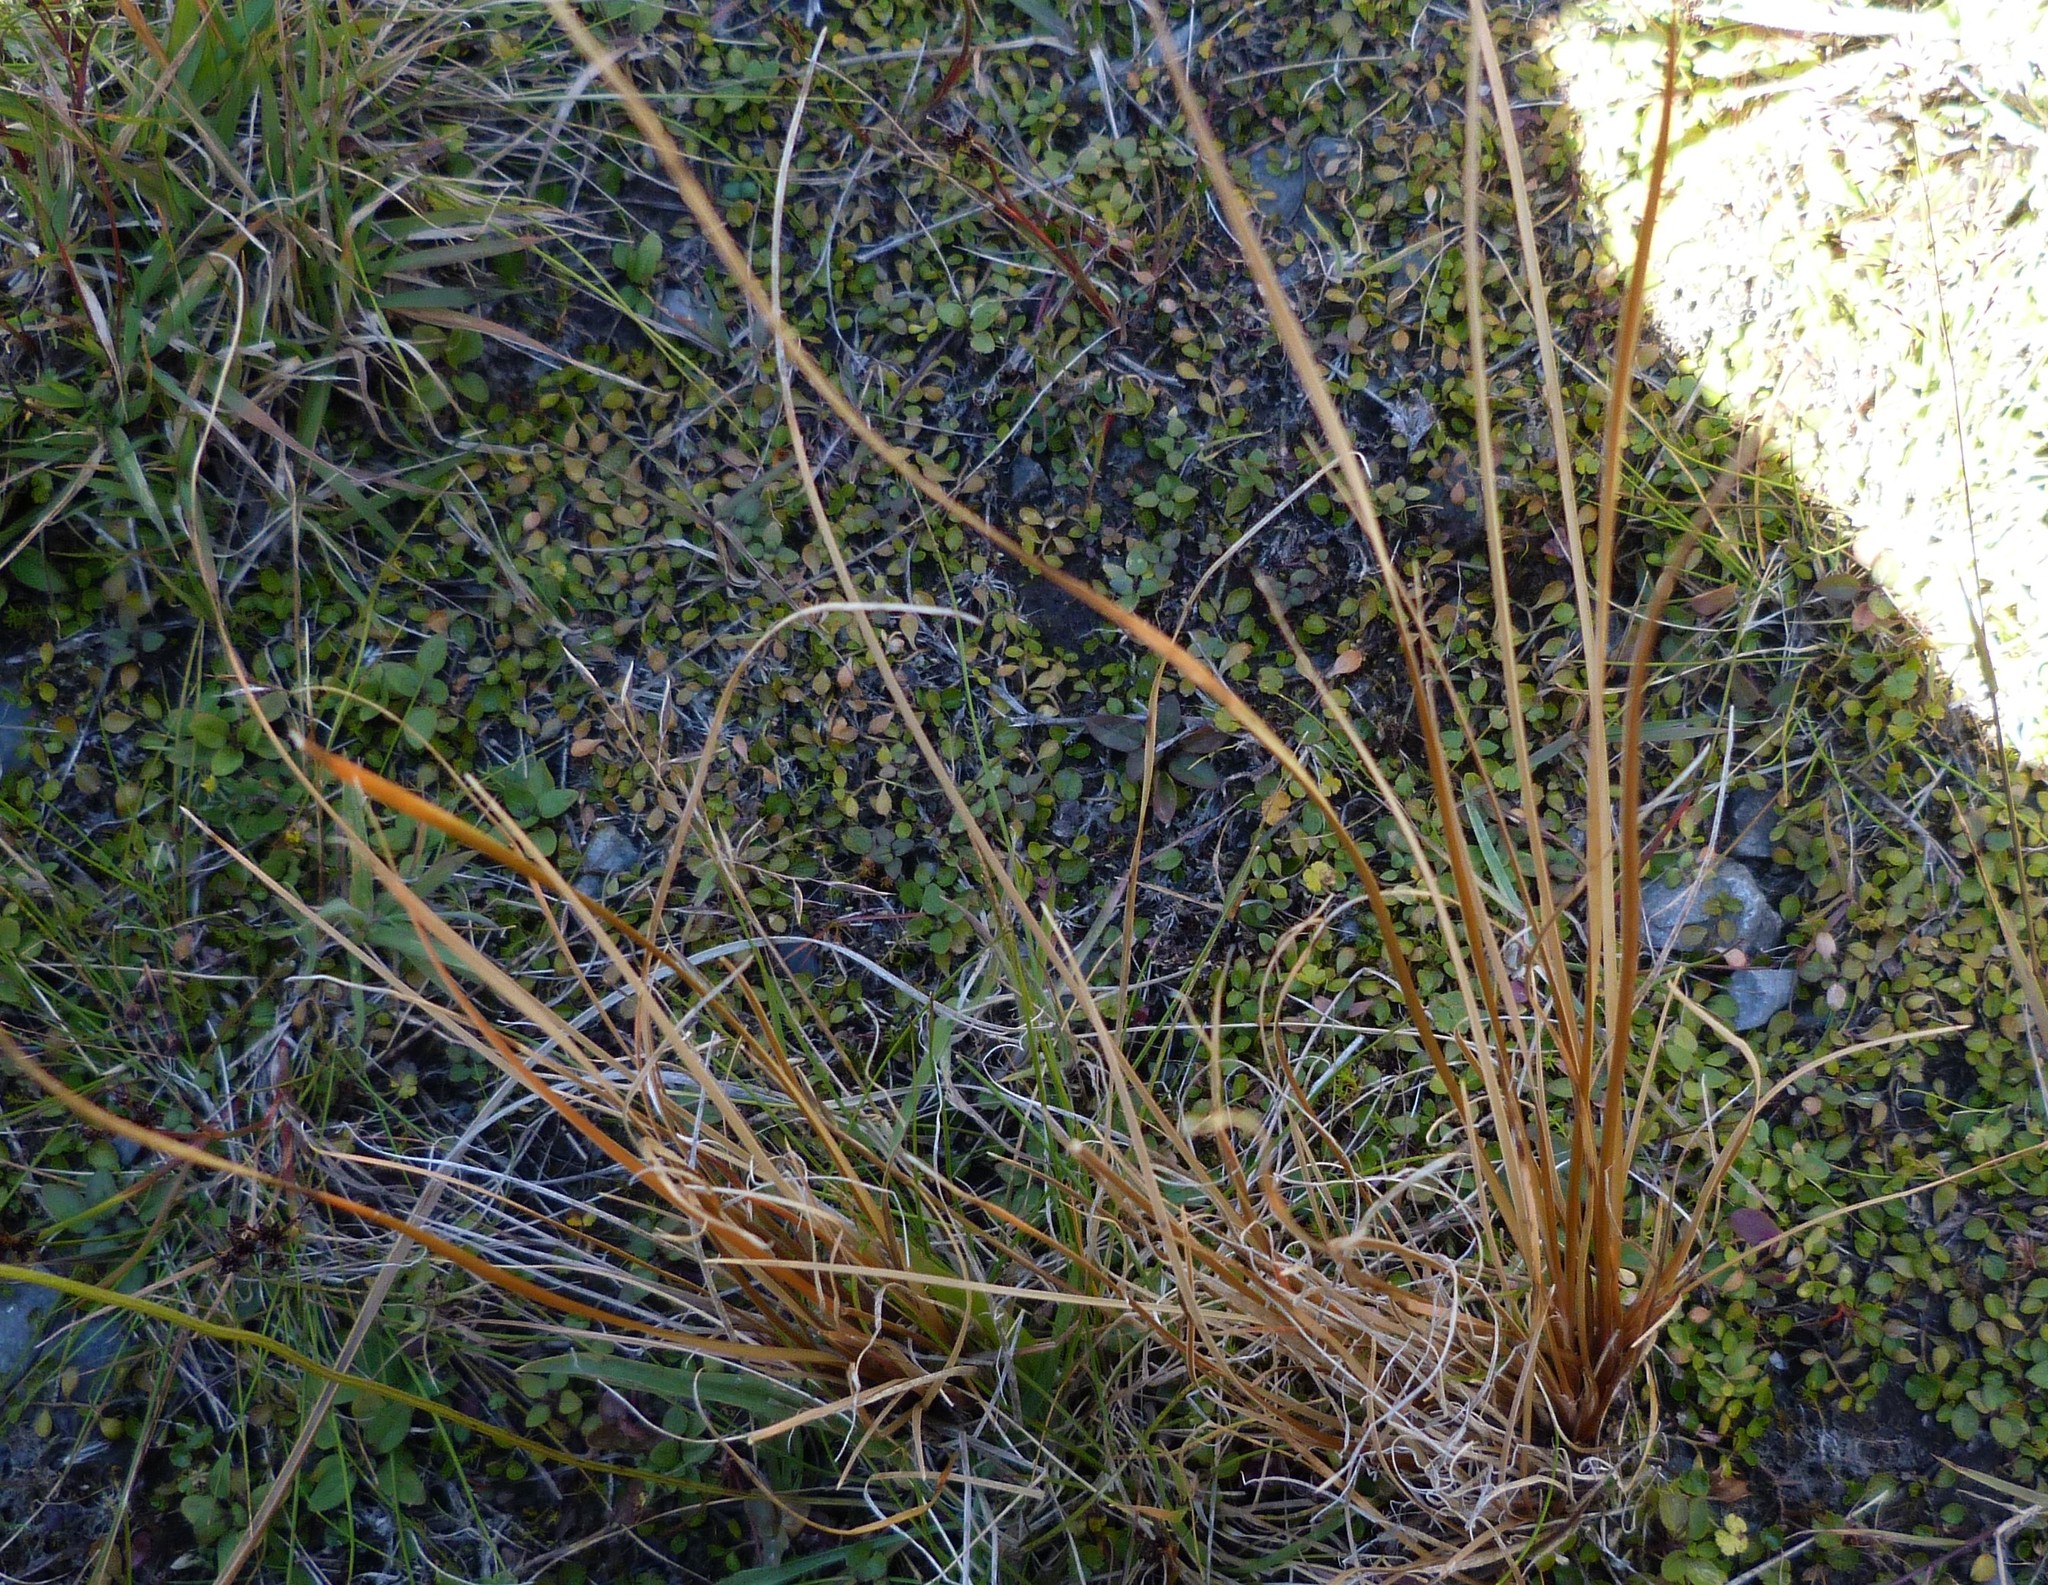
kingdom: Plantae
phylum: Tracheophyta
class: Liliopsida
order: Poales
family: Cyperaceae
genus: Carex
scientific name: Carex buchananii
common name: Leatherleaf sedge
